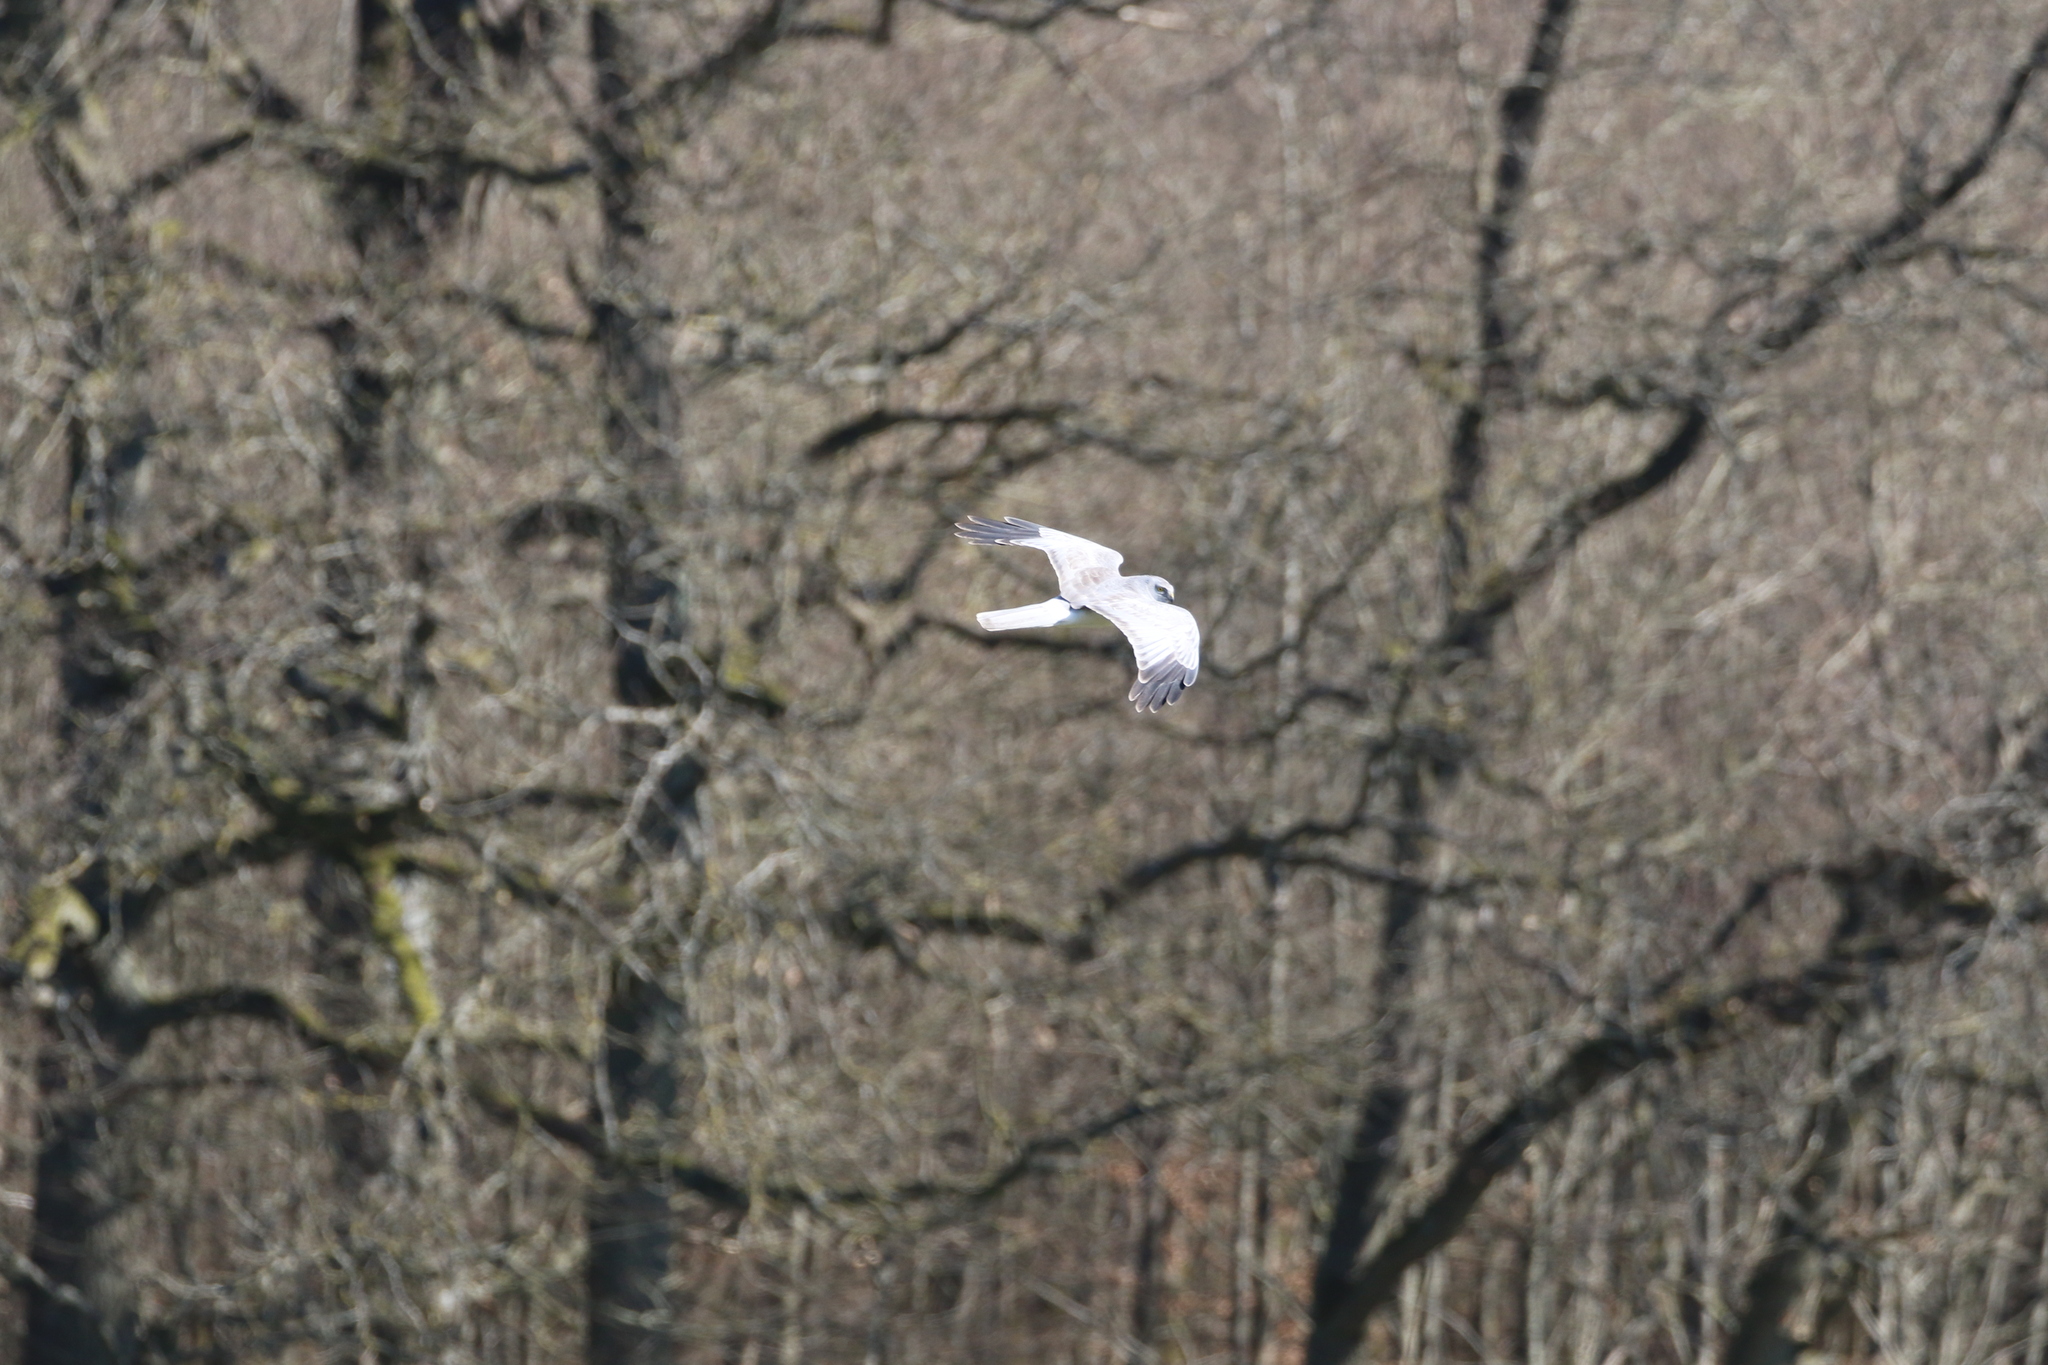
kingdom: Animalia
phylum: Chordata
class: Aves
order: Accipitriformes
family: Accipitridae
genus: Circus
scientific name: Circus cyaneus
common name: Hen harrier
